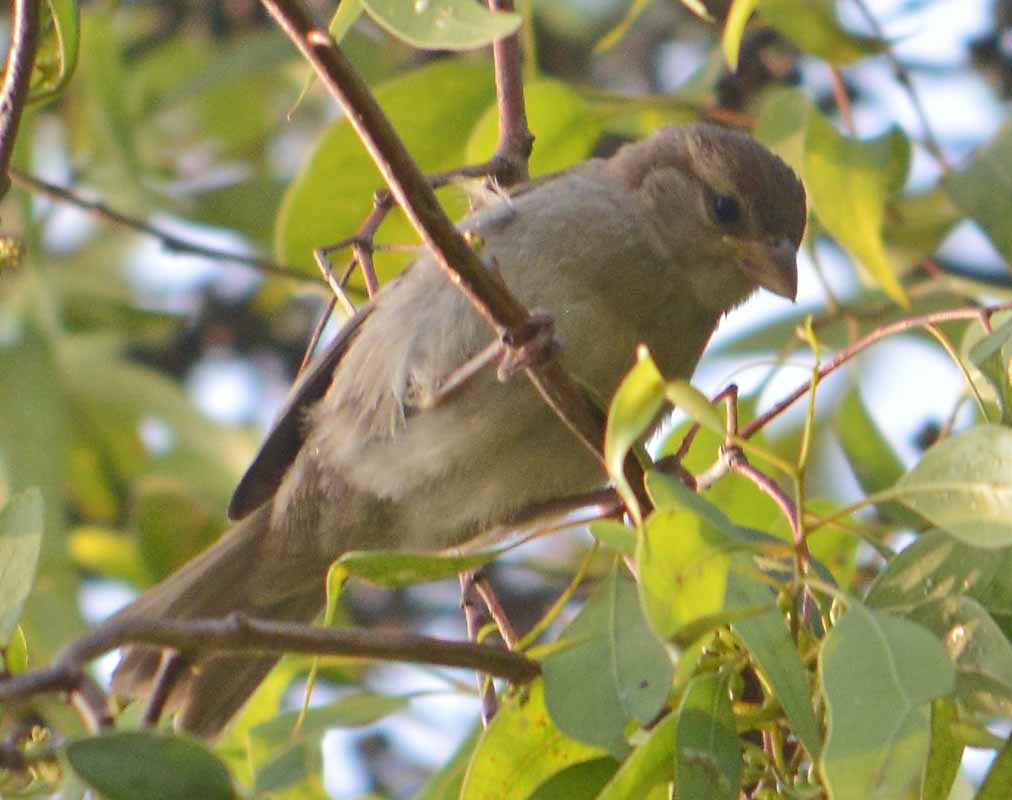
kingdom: Animalia
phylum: Chordata
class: Aves
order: Passeriformes
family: Passeridae
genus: Passer
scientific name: Passer domesticus
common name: House sparrow
